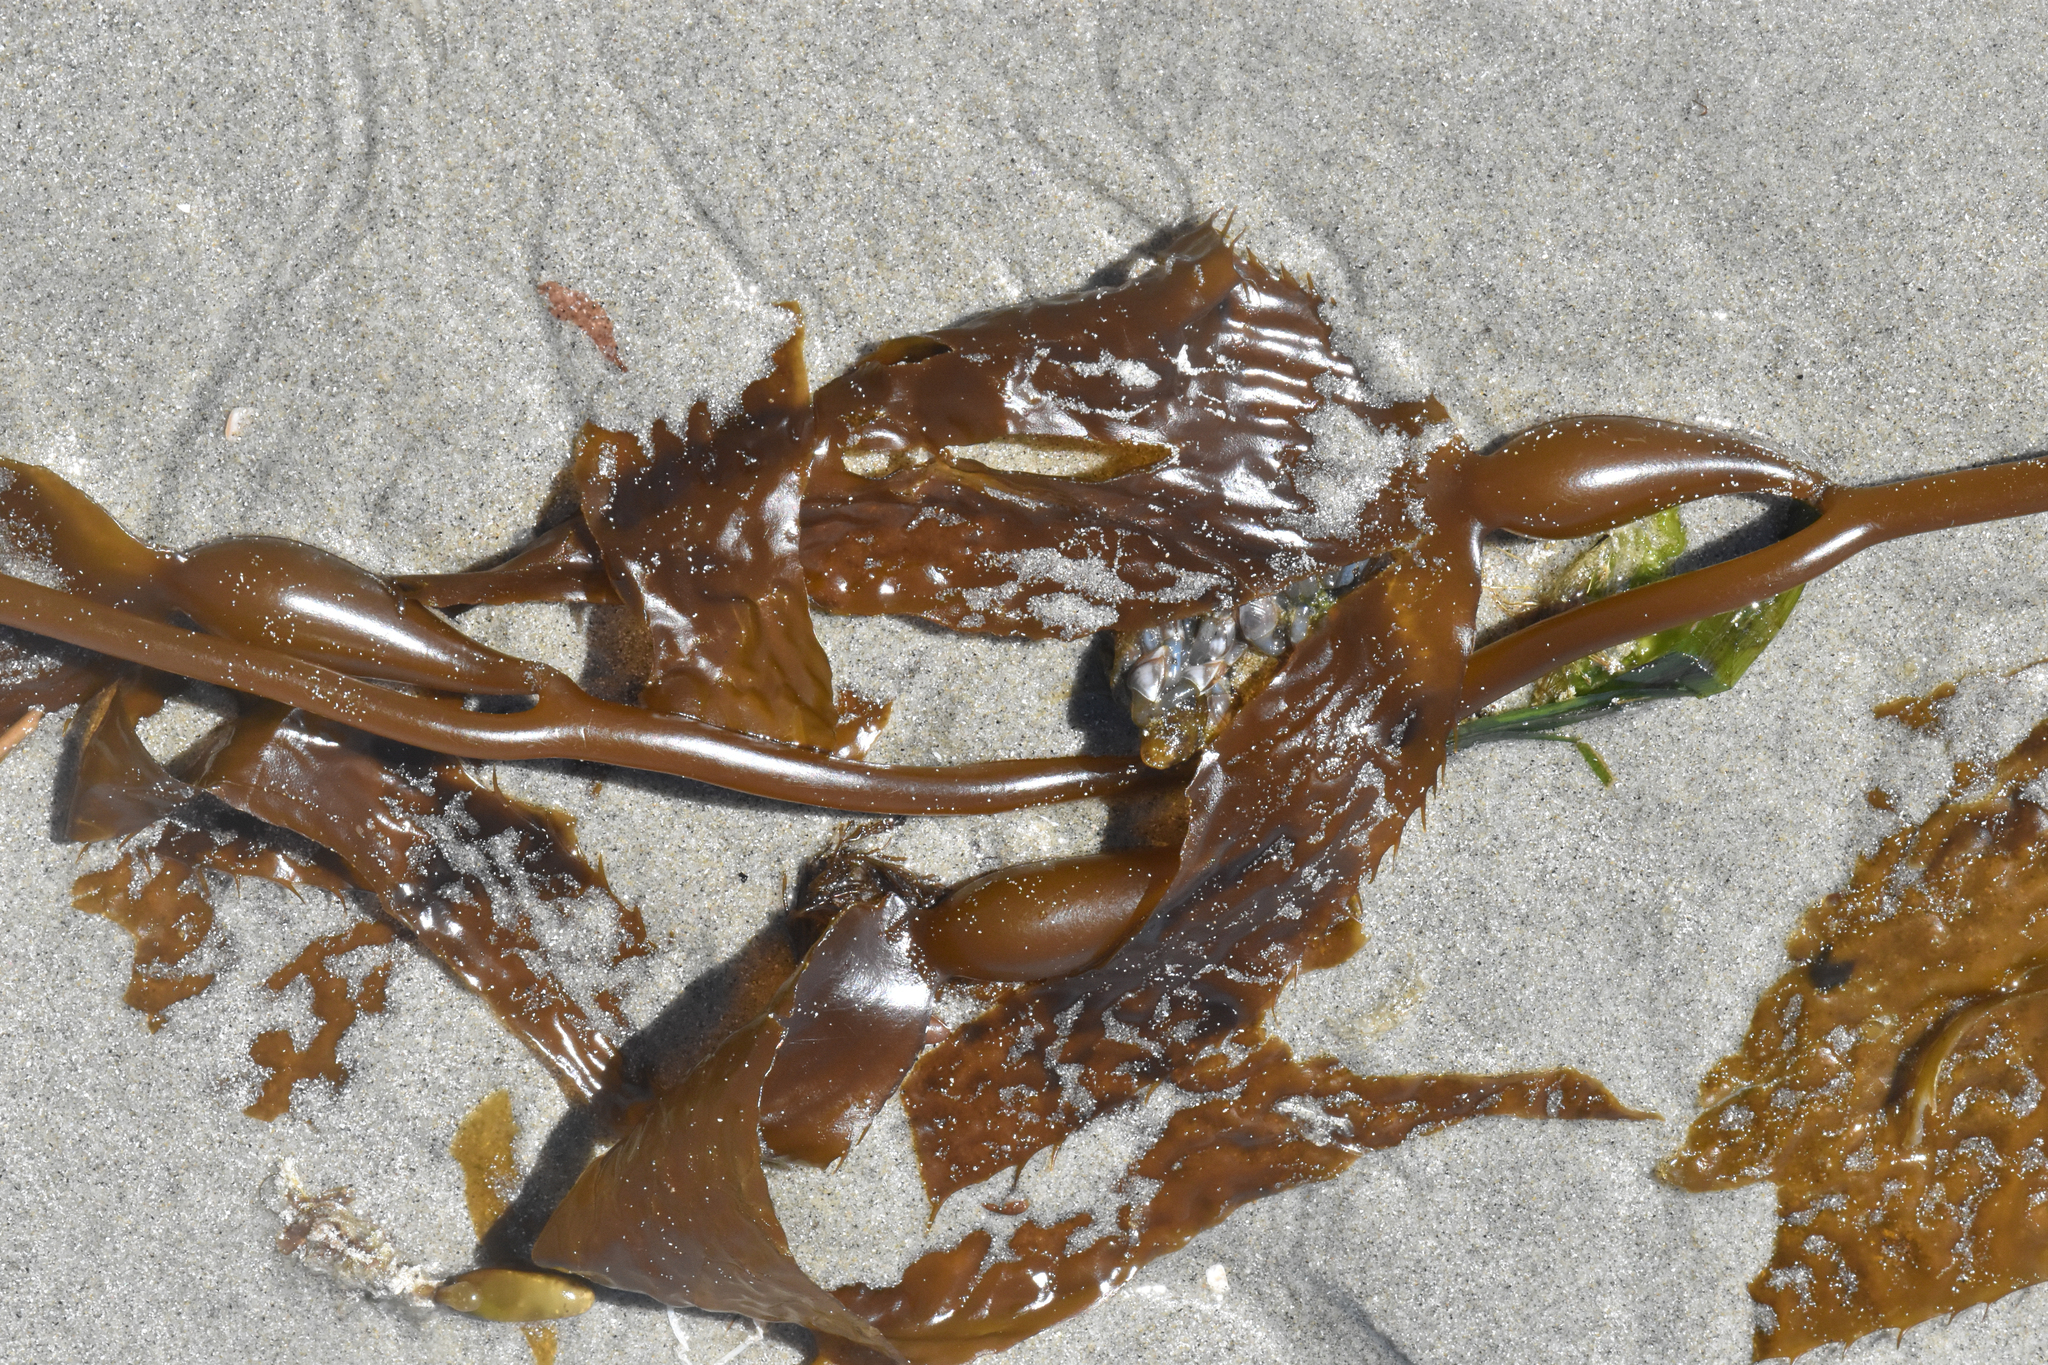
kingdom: Chromista
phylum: Ochrophyta
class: Phaeophyceae
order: Laminariales
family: Laminariaceae
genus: Macrocystis
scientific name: Macrocystis pyrifera
